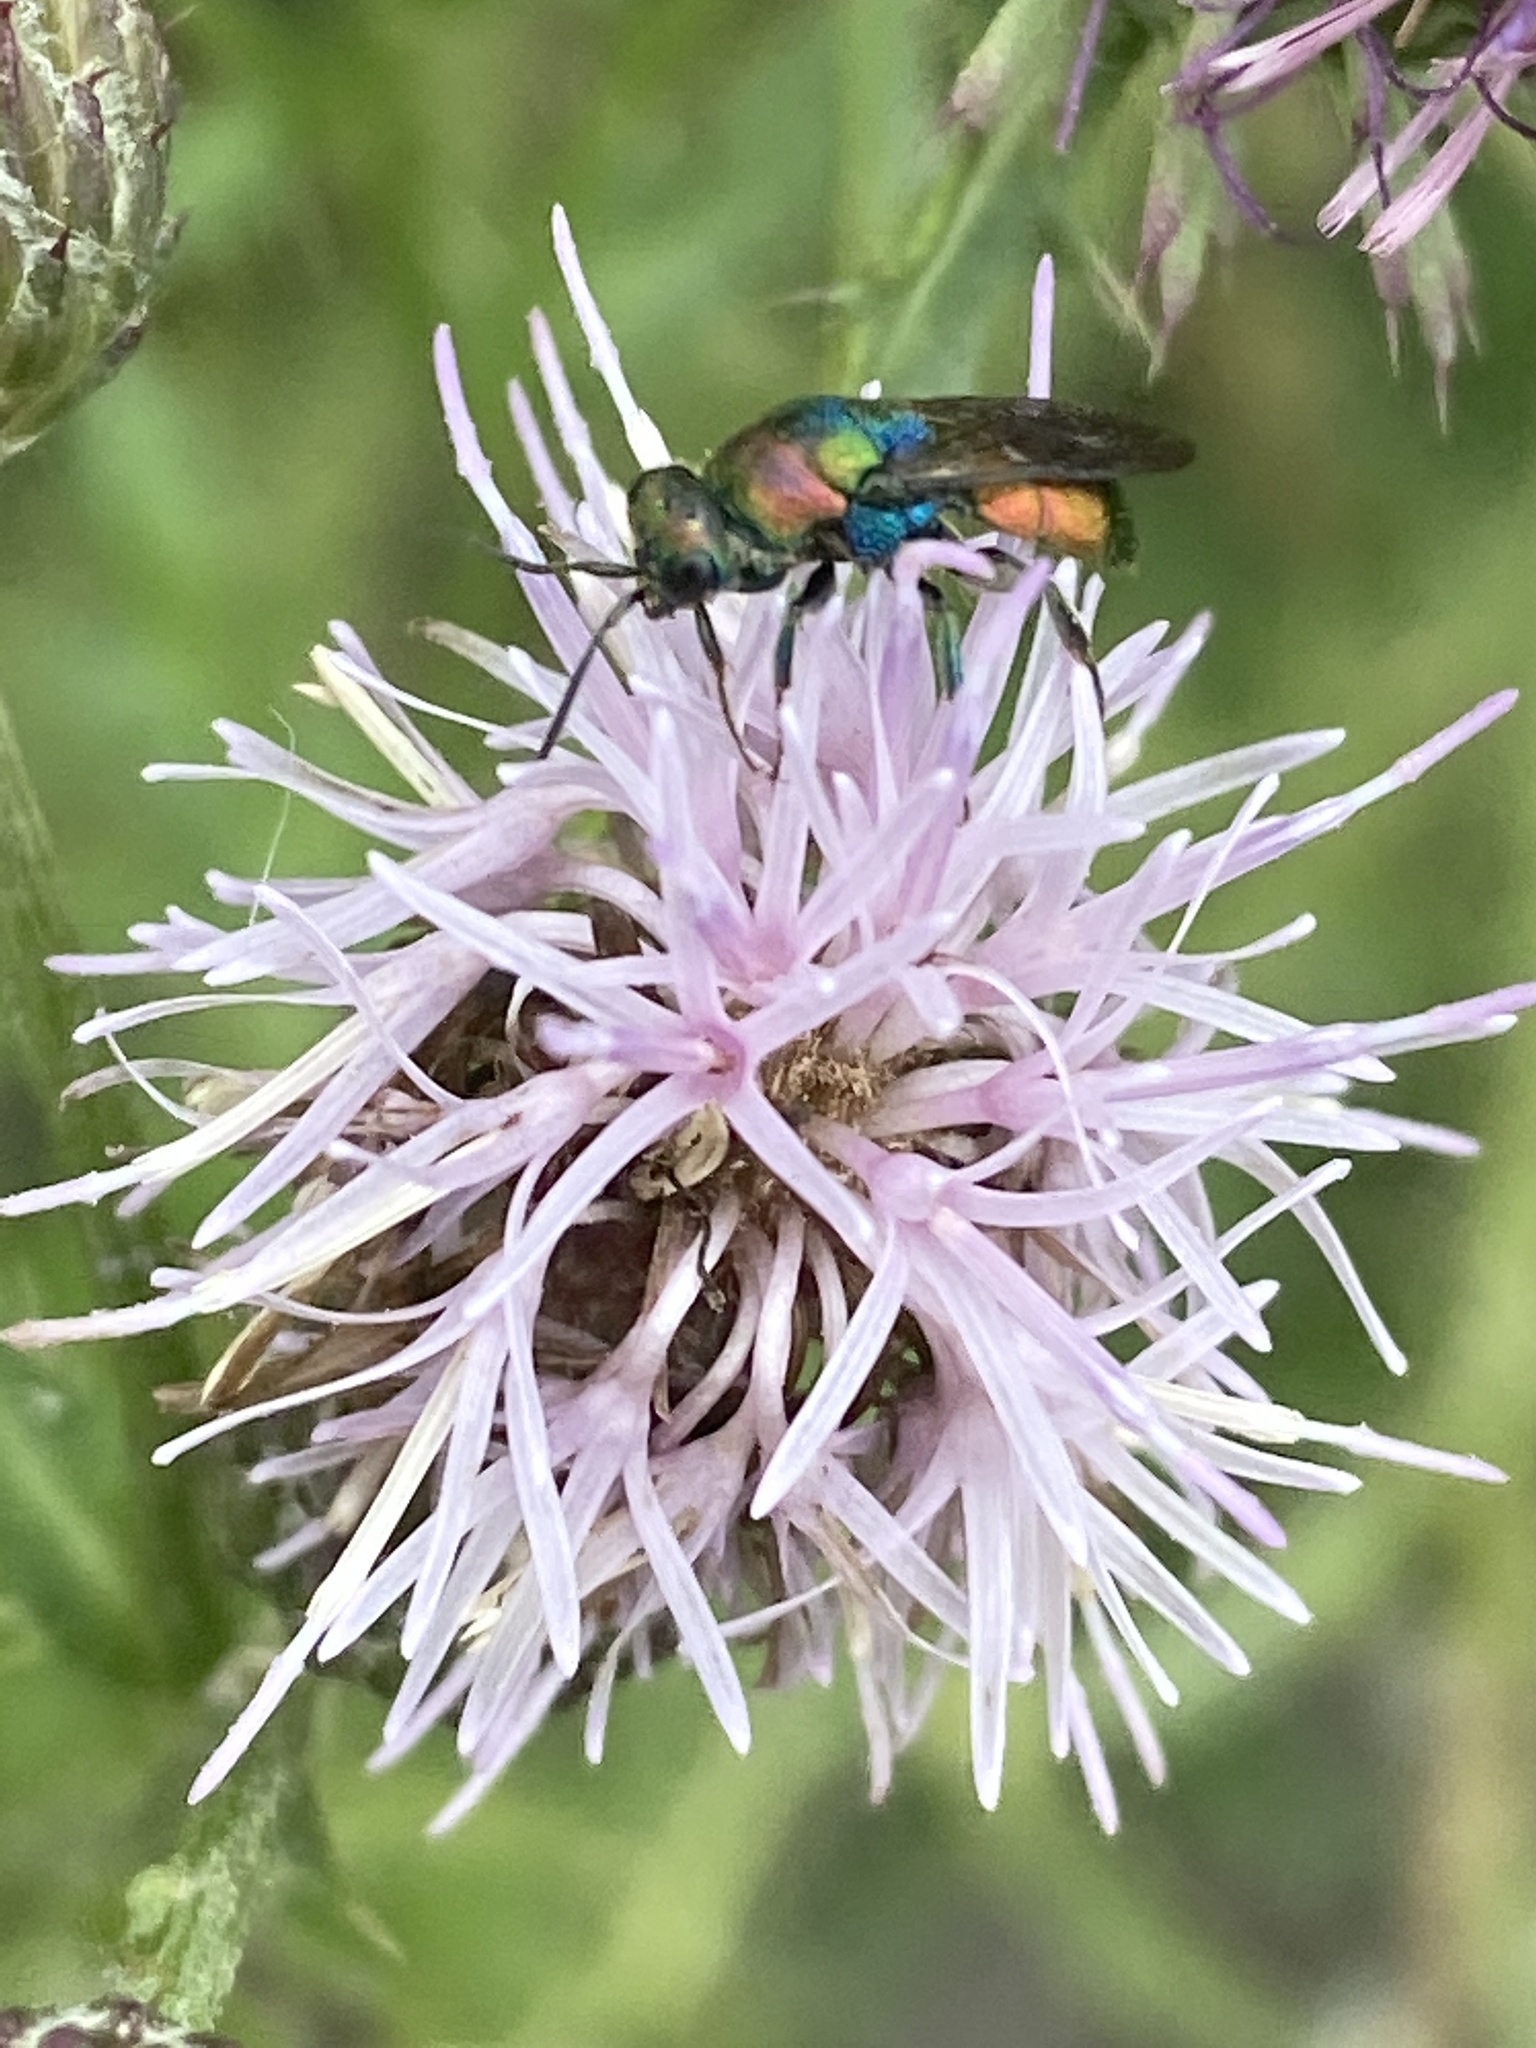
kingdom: Animalia
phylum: Arthropoda
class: Insecta
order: Hymenoptera
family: Chrysididae
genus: Hedychrum
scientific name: Hedychrum rutilans
